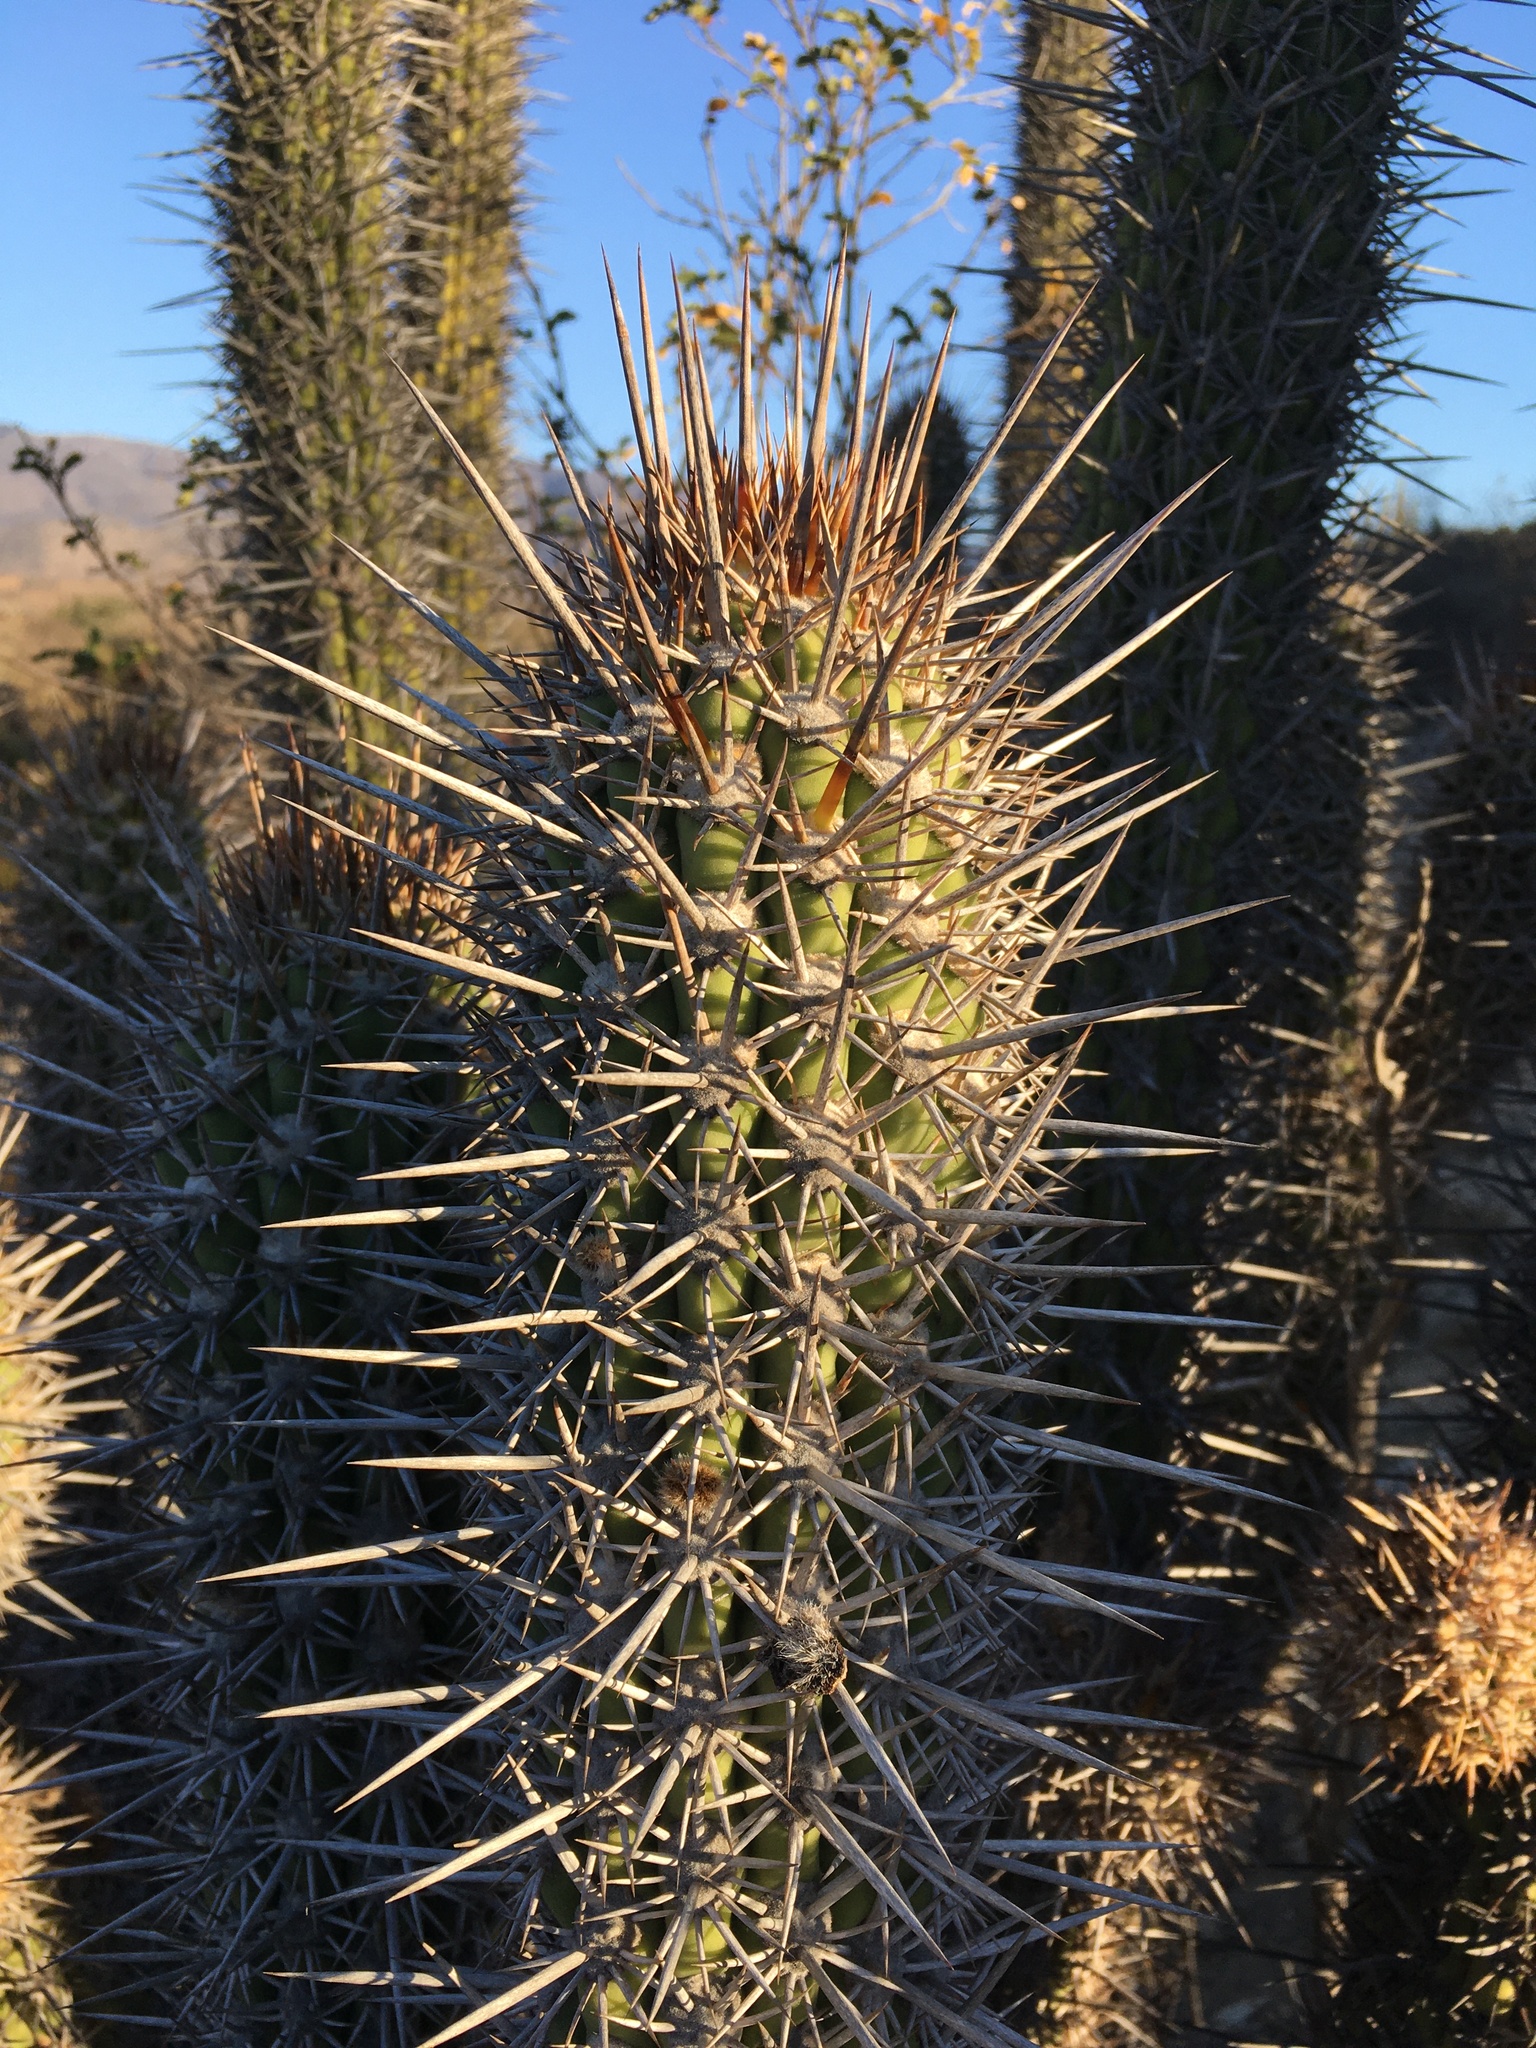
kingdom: Plantae
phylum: Tracheophyta
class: Magnoliopsida
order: Caryophyllales
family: Cactaceae
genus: Leucostele
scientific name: Leucostele nigripilis
